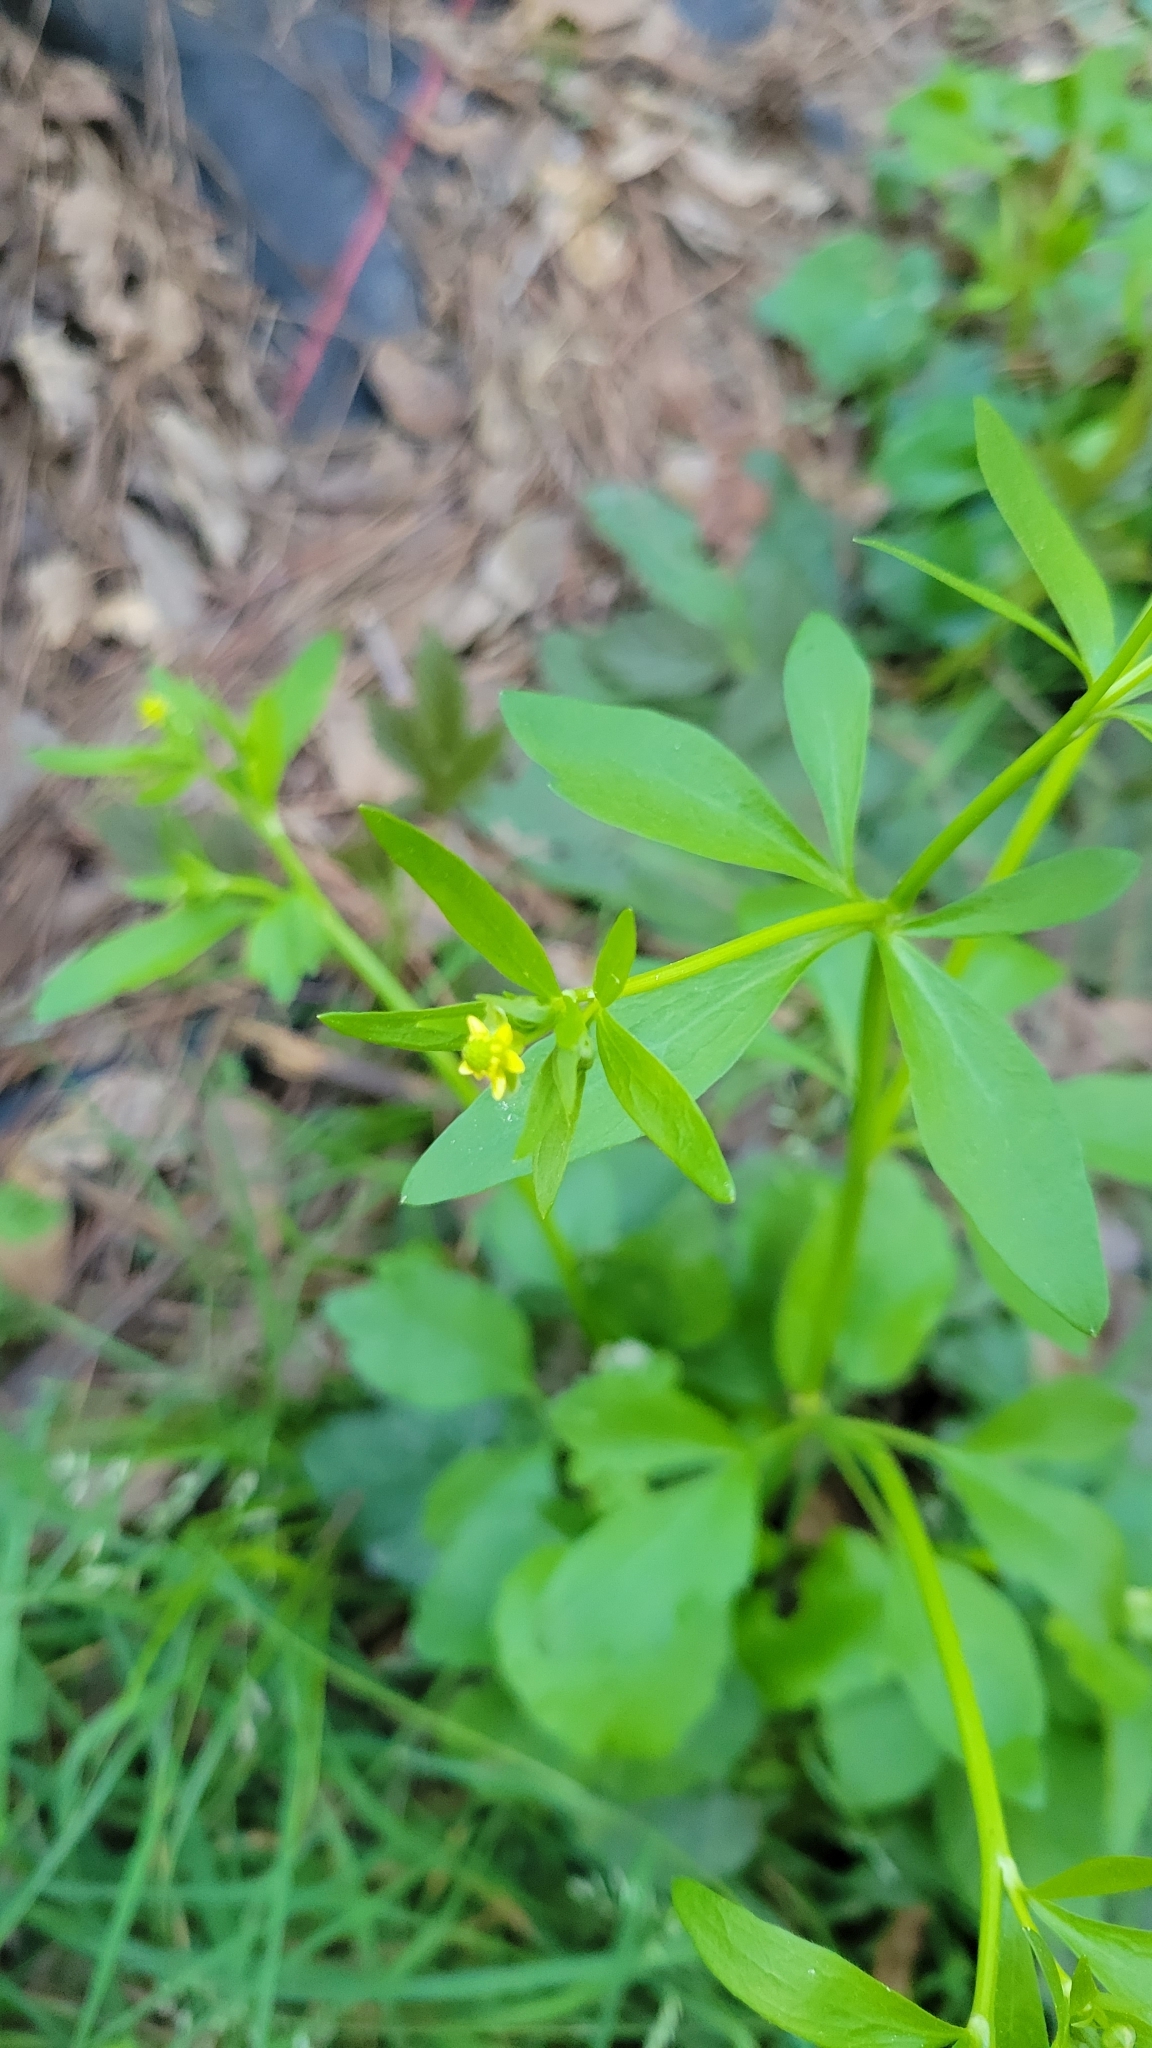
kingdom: Plantae
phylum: Tracheophyta
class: Magnoliopsida
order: Ranunculales
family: Ranunculaceae
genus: Ranunculus
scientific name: Ranunculus abortivus
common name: Early wood buttercup
